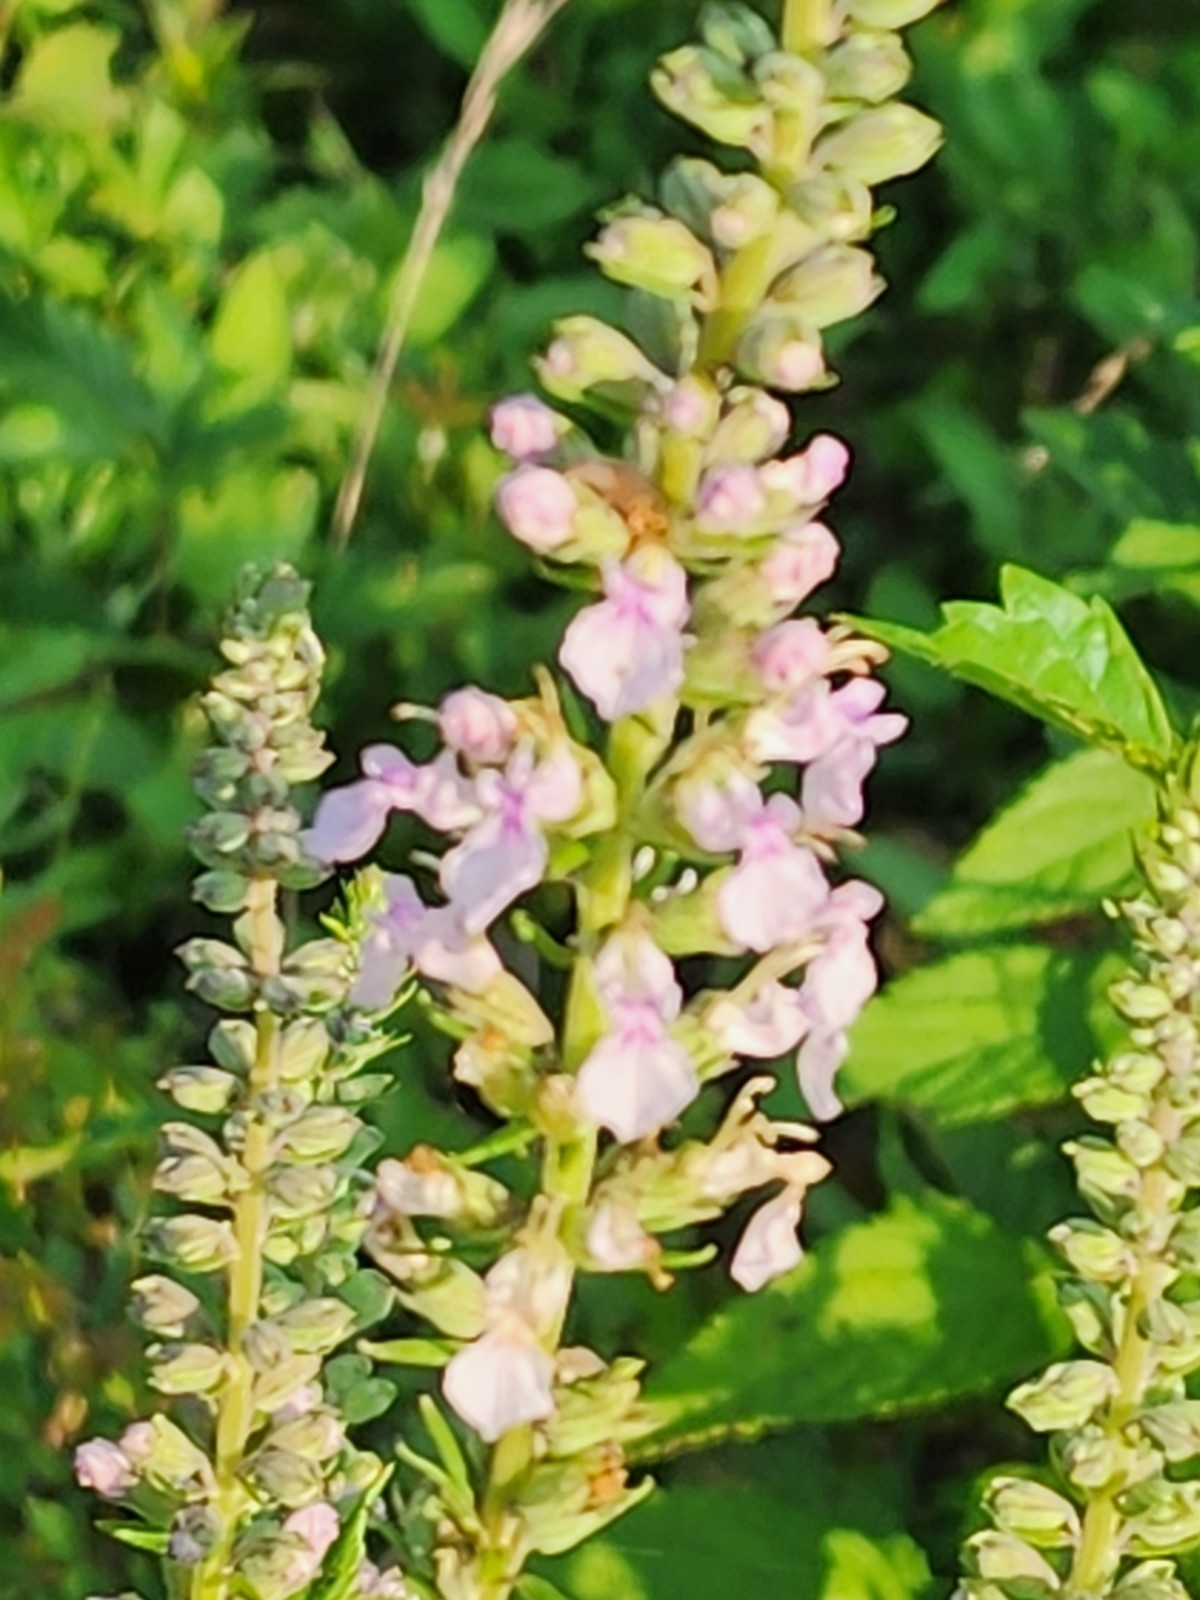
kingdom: Plantae
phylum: Tracheophyta
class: Magnoliopsida
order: Lamiales
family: Lamiaceae
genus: Teucrium
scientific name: Teucrium canadense
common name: American germander
